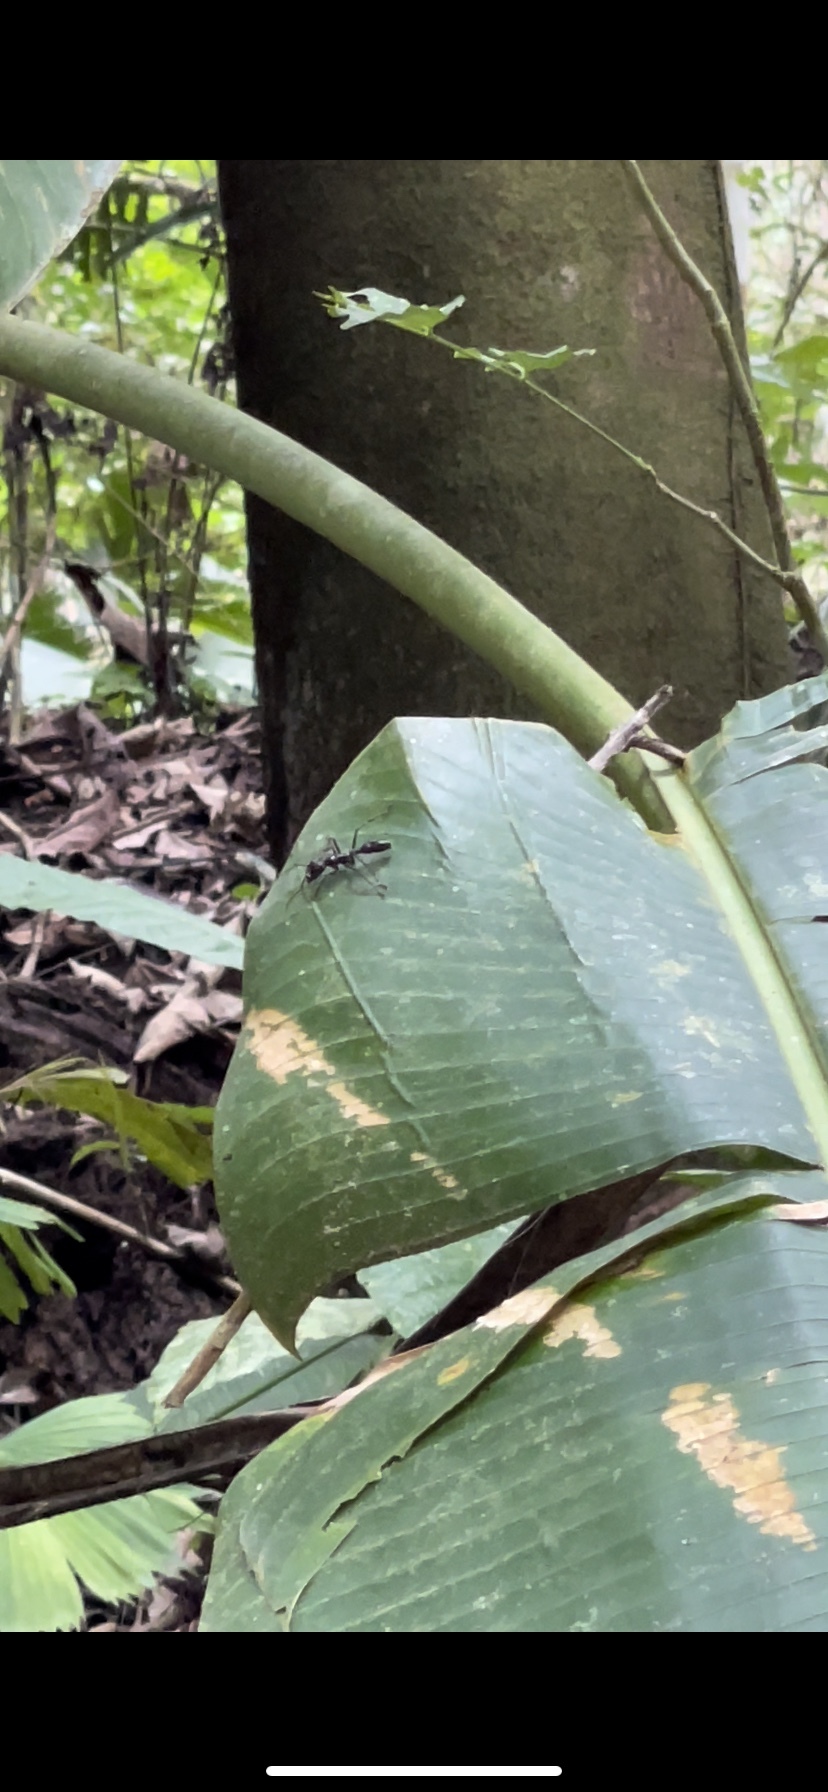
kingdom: Animalia
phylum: Arthropoda
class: Insecta
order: Hymenoptera
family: Formicidae
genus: Paraponera
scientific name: Paraponera clavata
